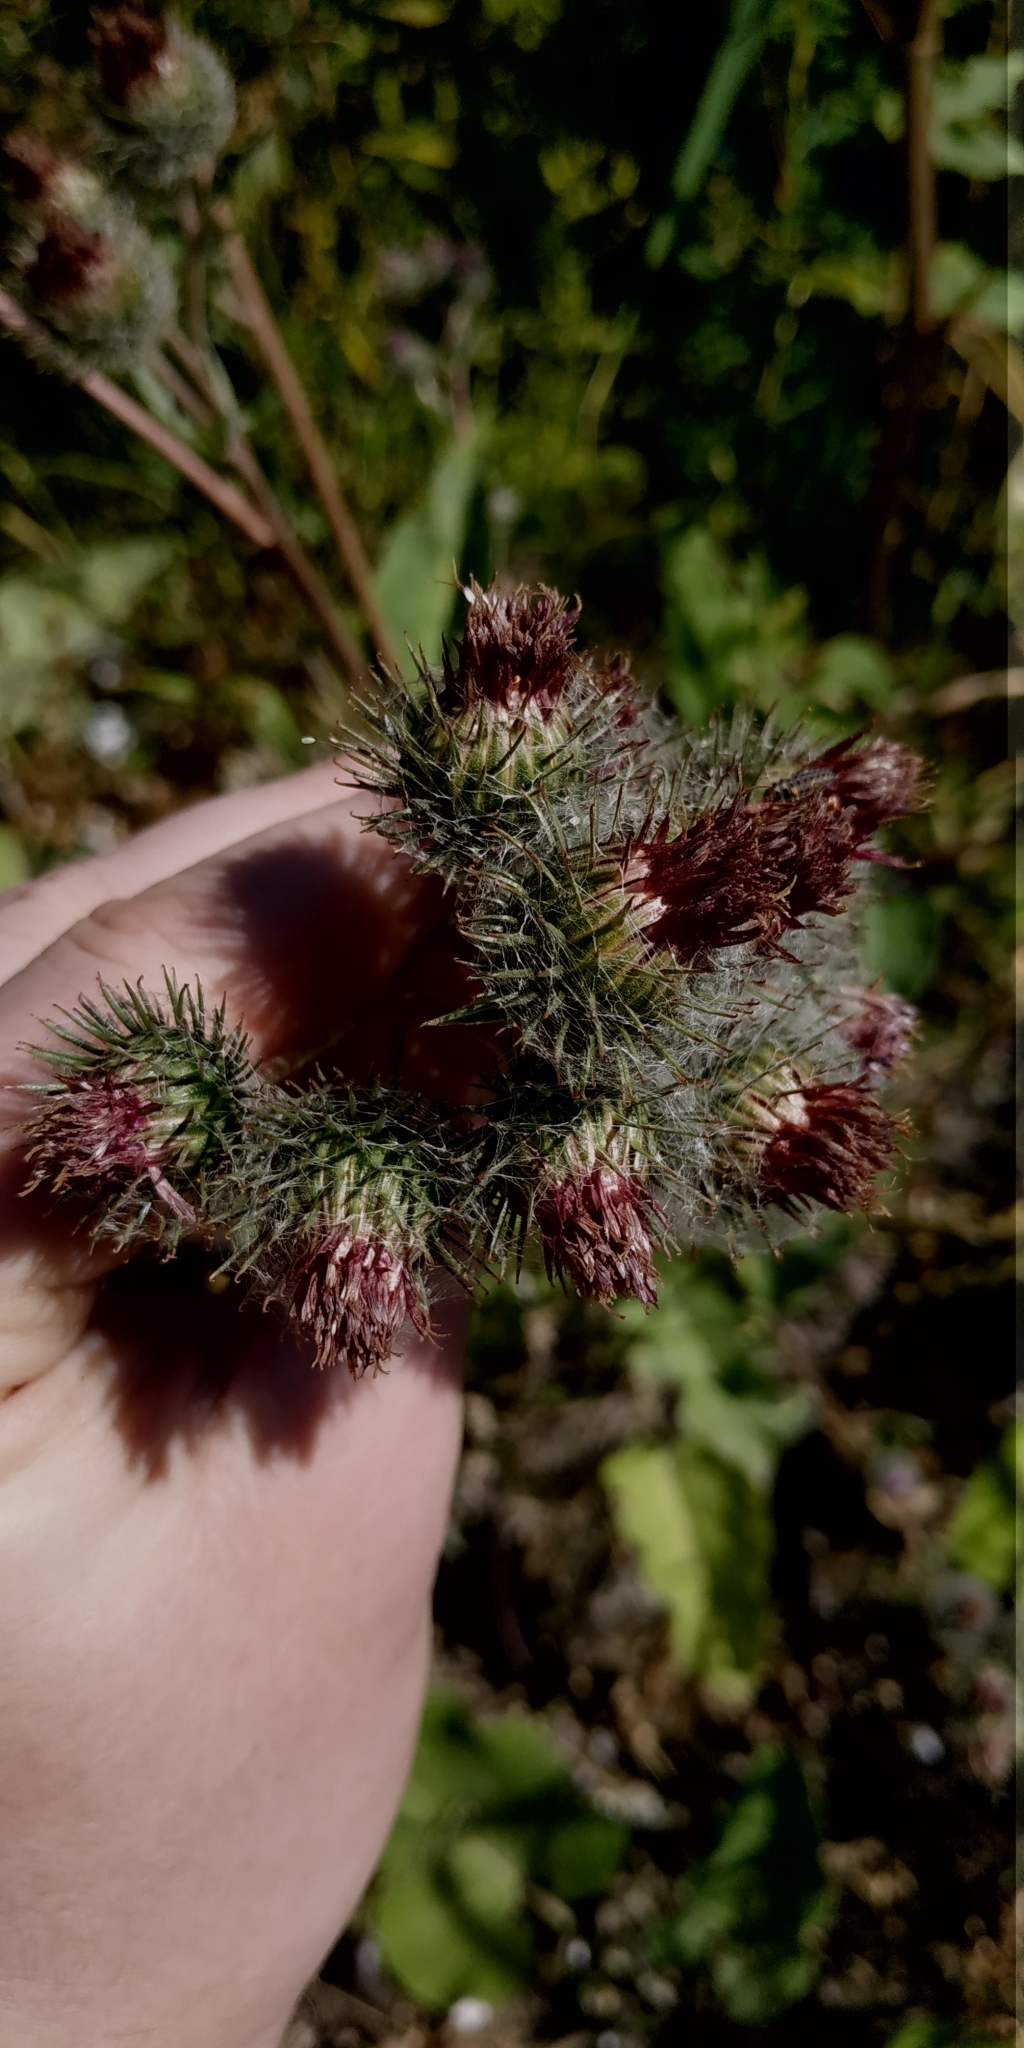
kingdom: Plantae
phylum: Tracheophyta
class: Magnoliopsida
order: Asterales
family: Asteraceae
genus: Arctium
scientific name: Arctium tomentosum
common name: Woolly burdock
